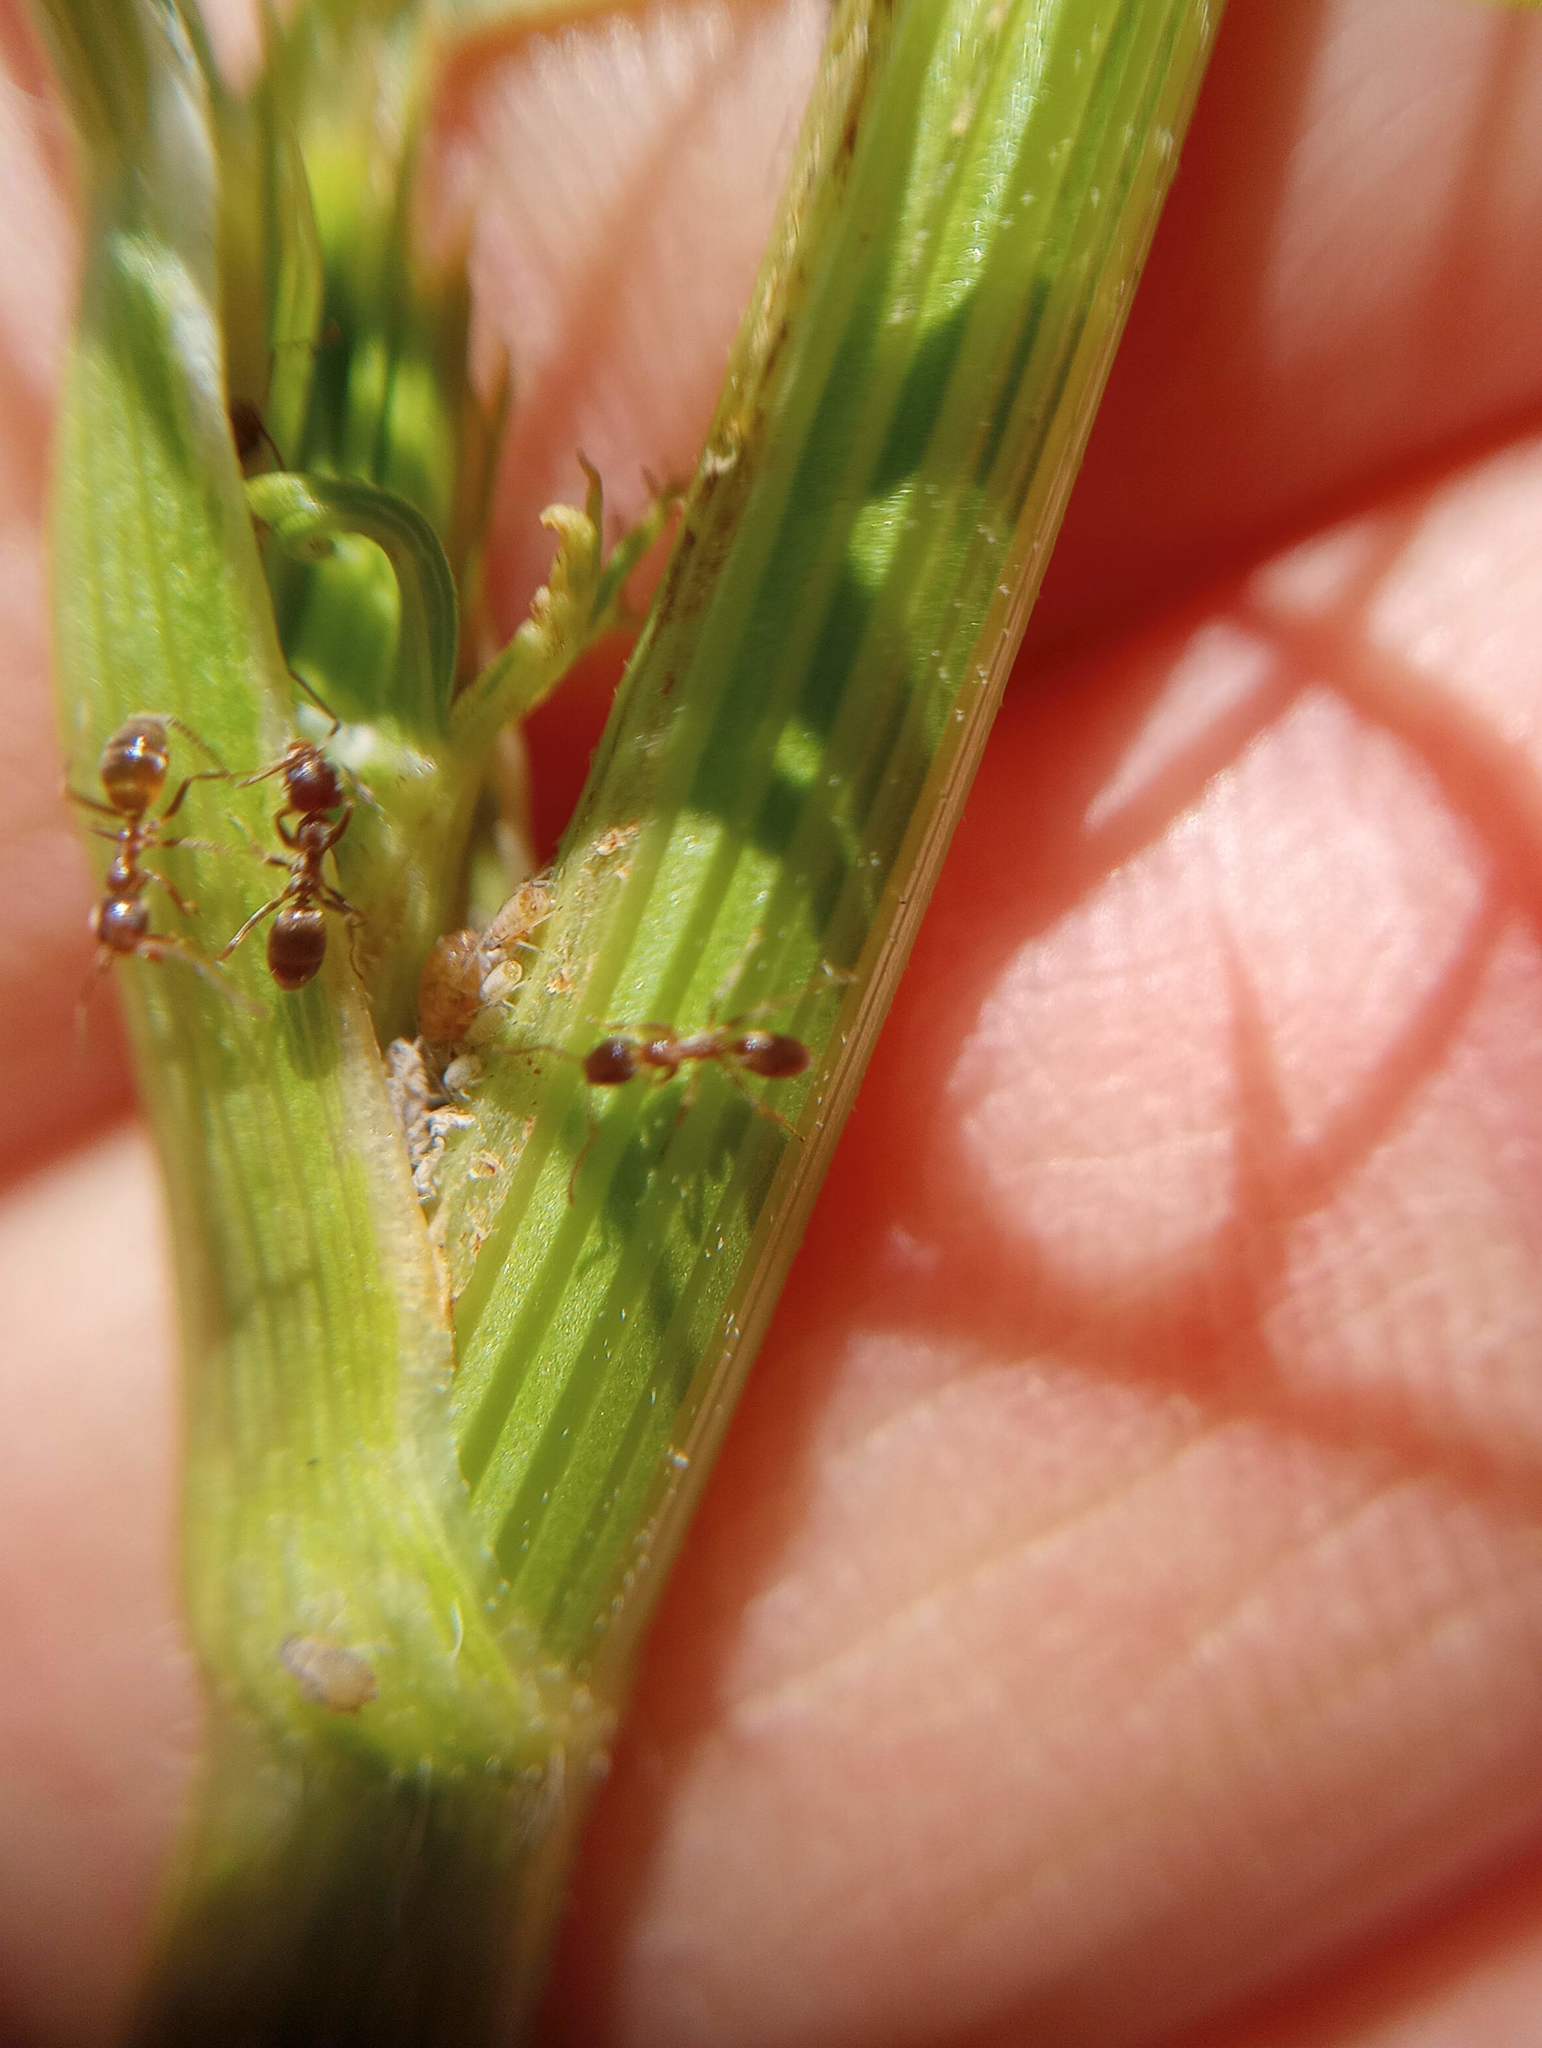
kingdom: Animalia
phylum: Arthropoda
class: Insecta
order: Hymenoptera
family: Formicidae
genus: Linepithema
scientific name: Linepithema humile
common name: Argentine ant
